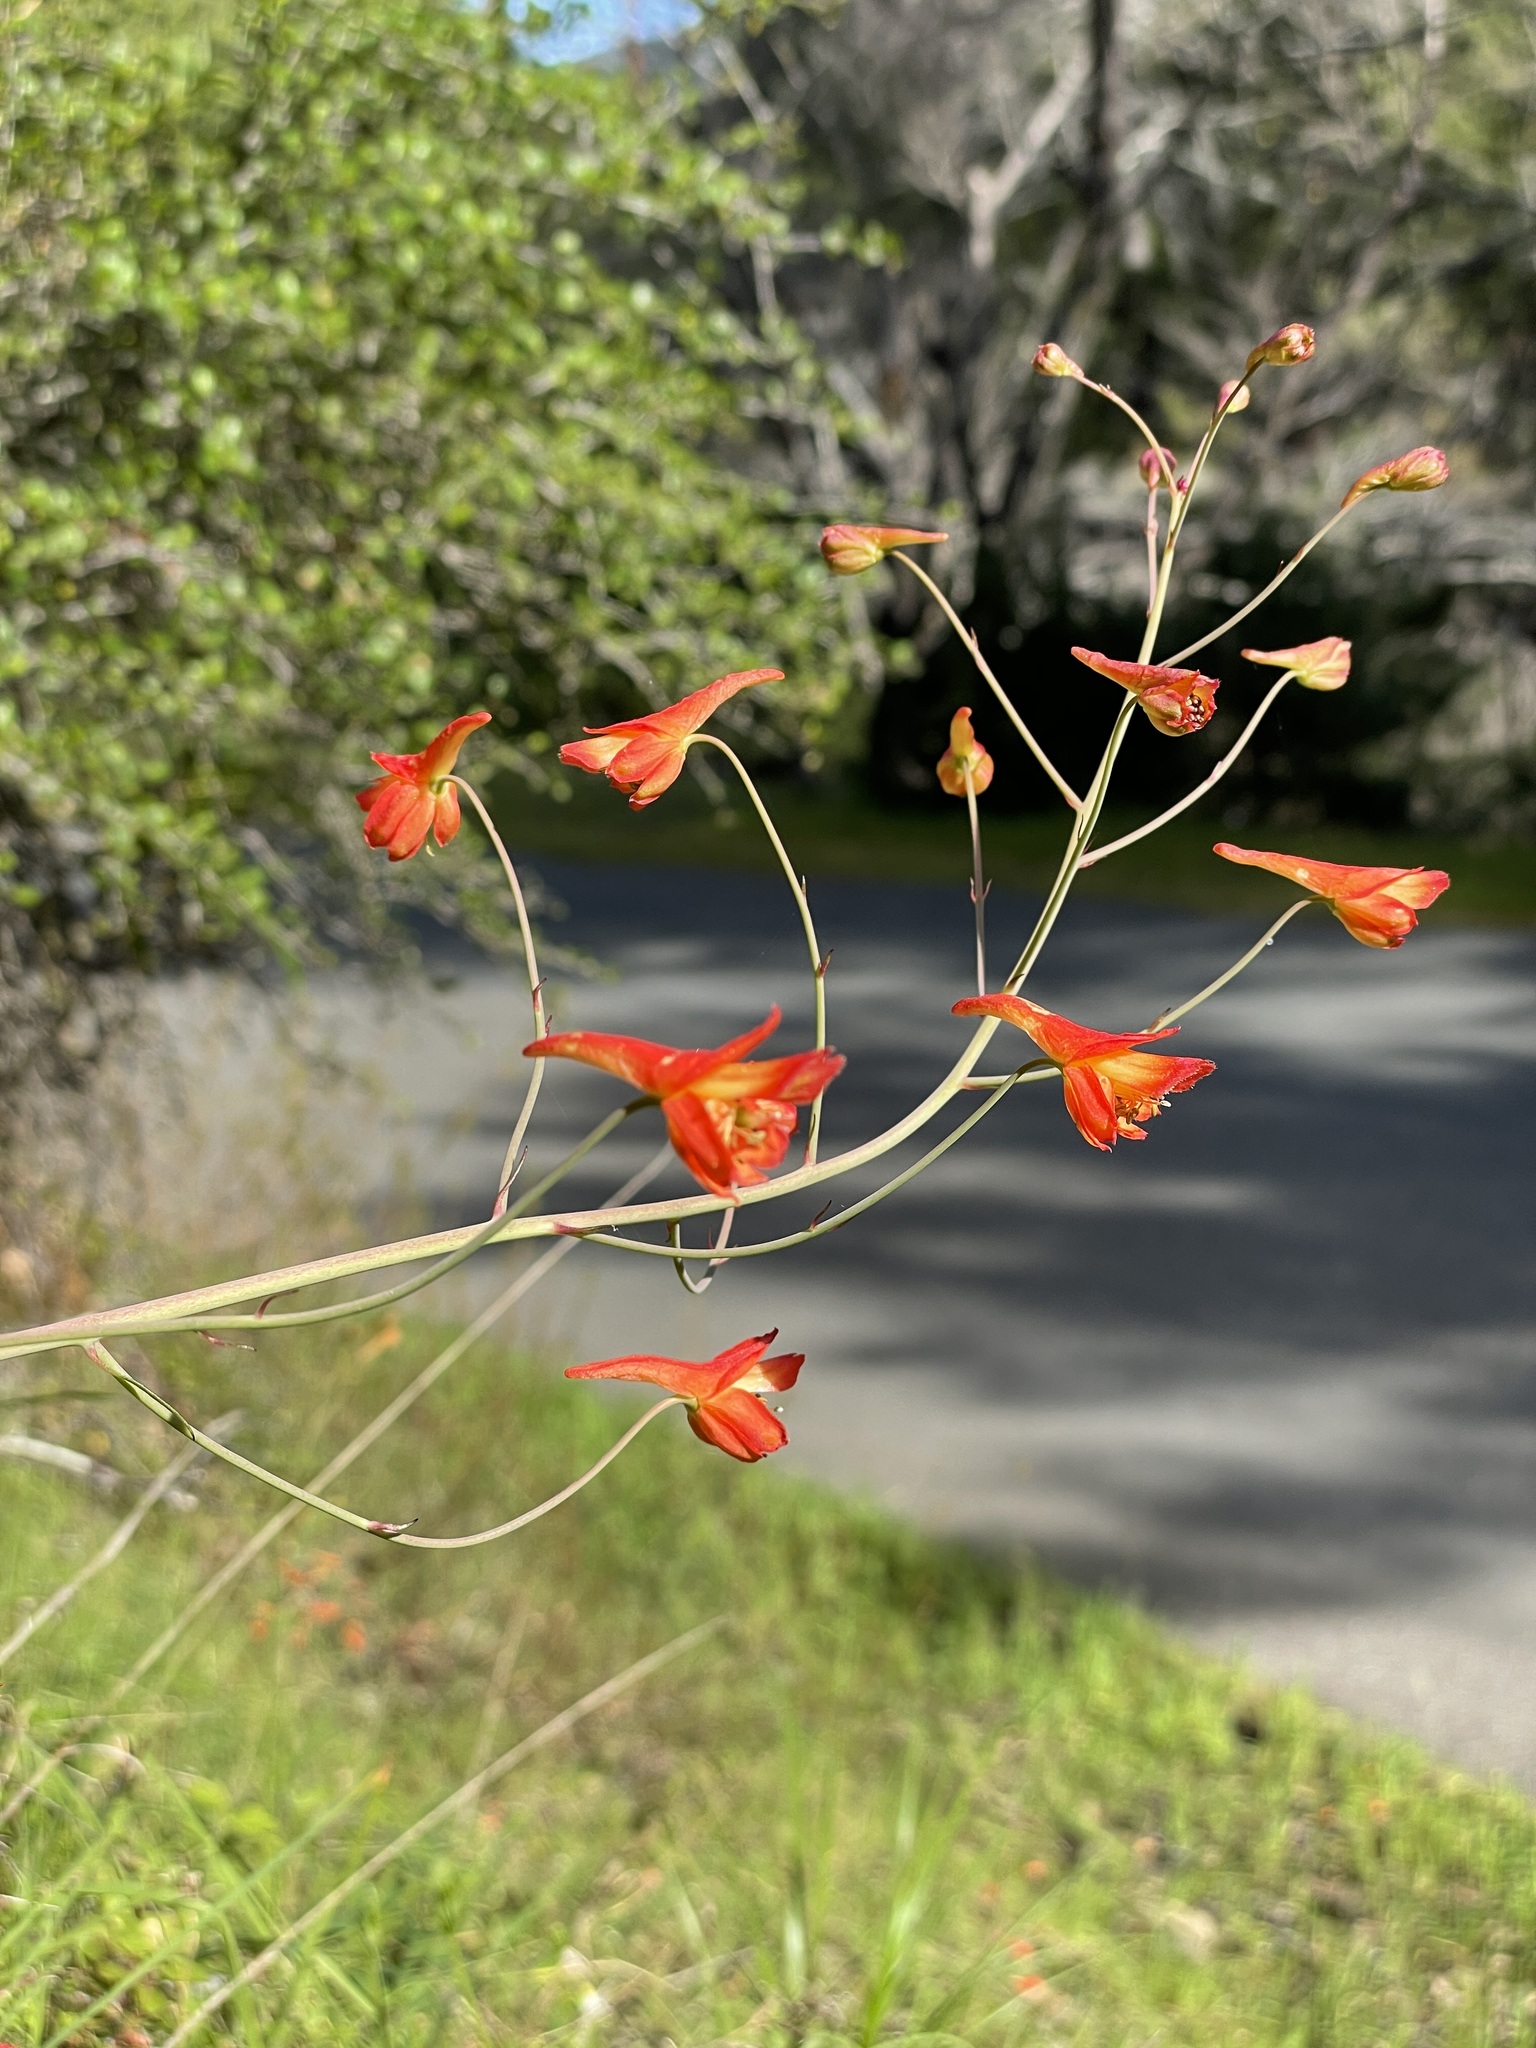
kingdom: Plantae
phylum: Tracheophyta
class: Magnoliopsida
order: Ranunculales
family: Ranunculaceae
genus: Delphinium
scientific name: Delphinium nudicaule
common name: Red larkspur
